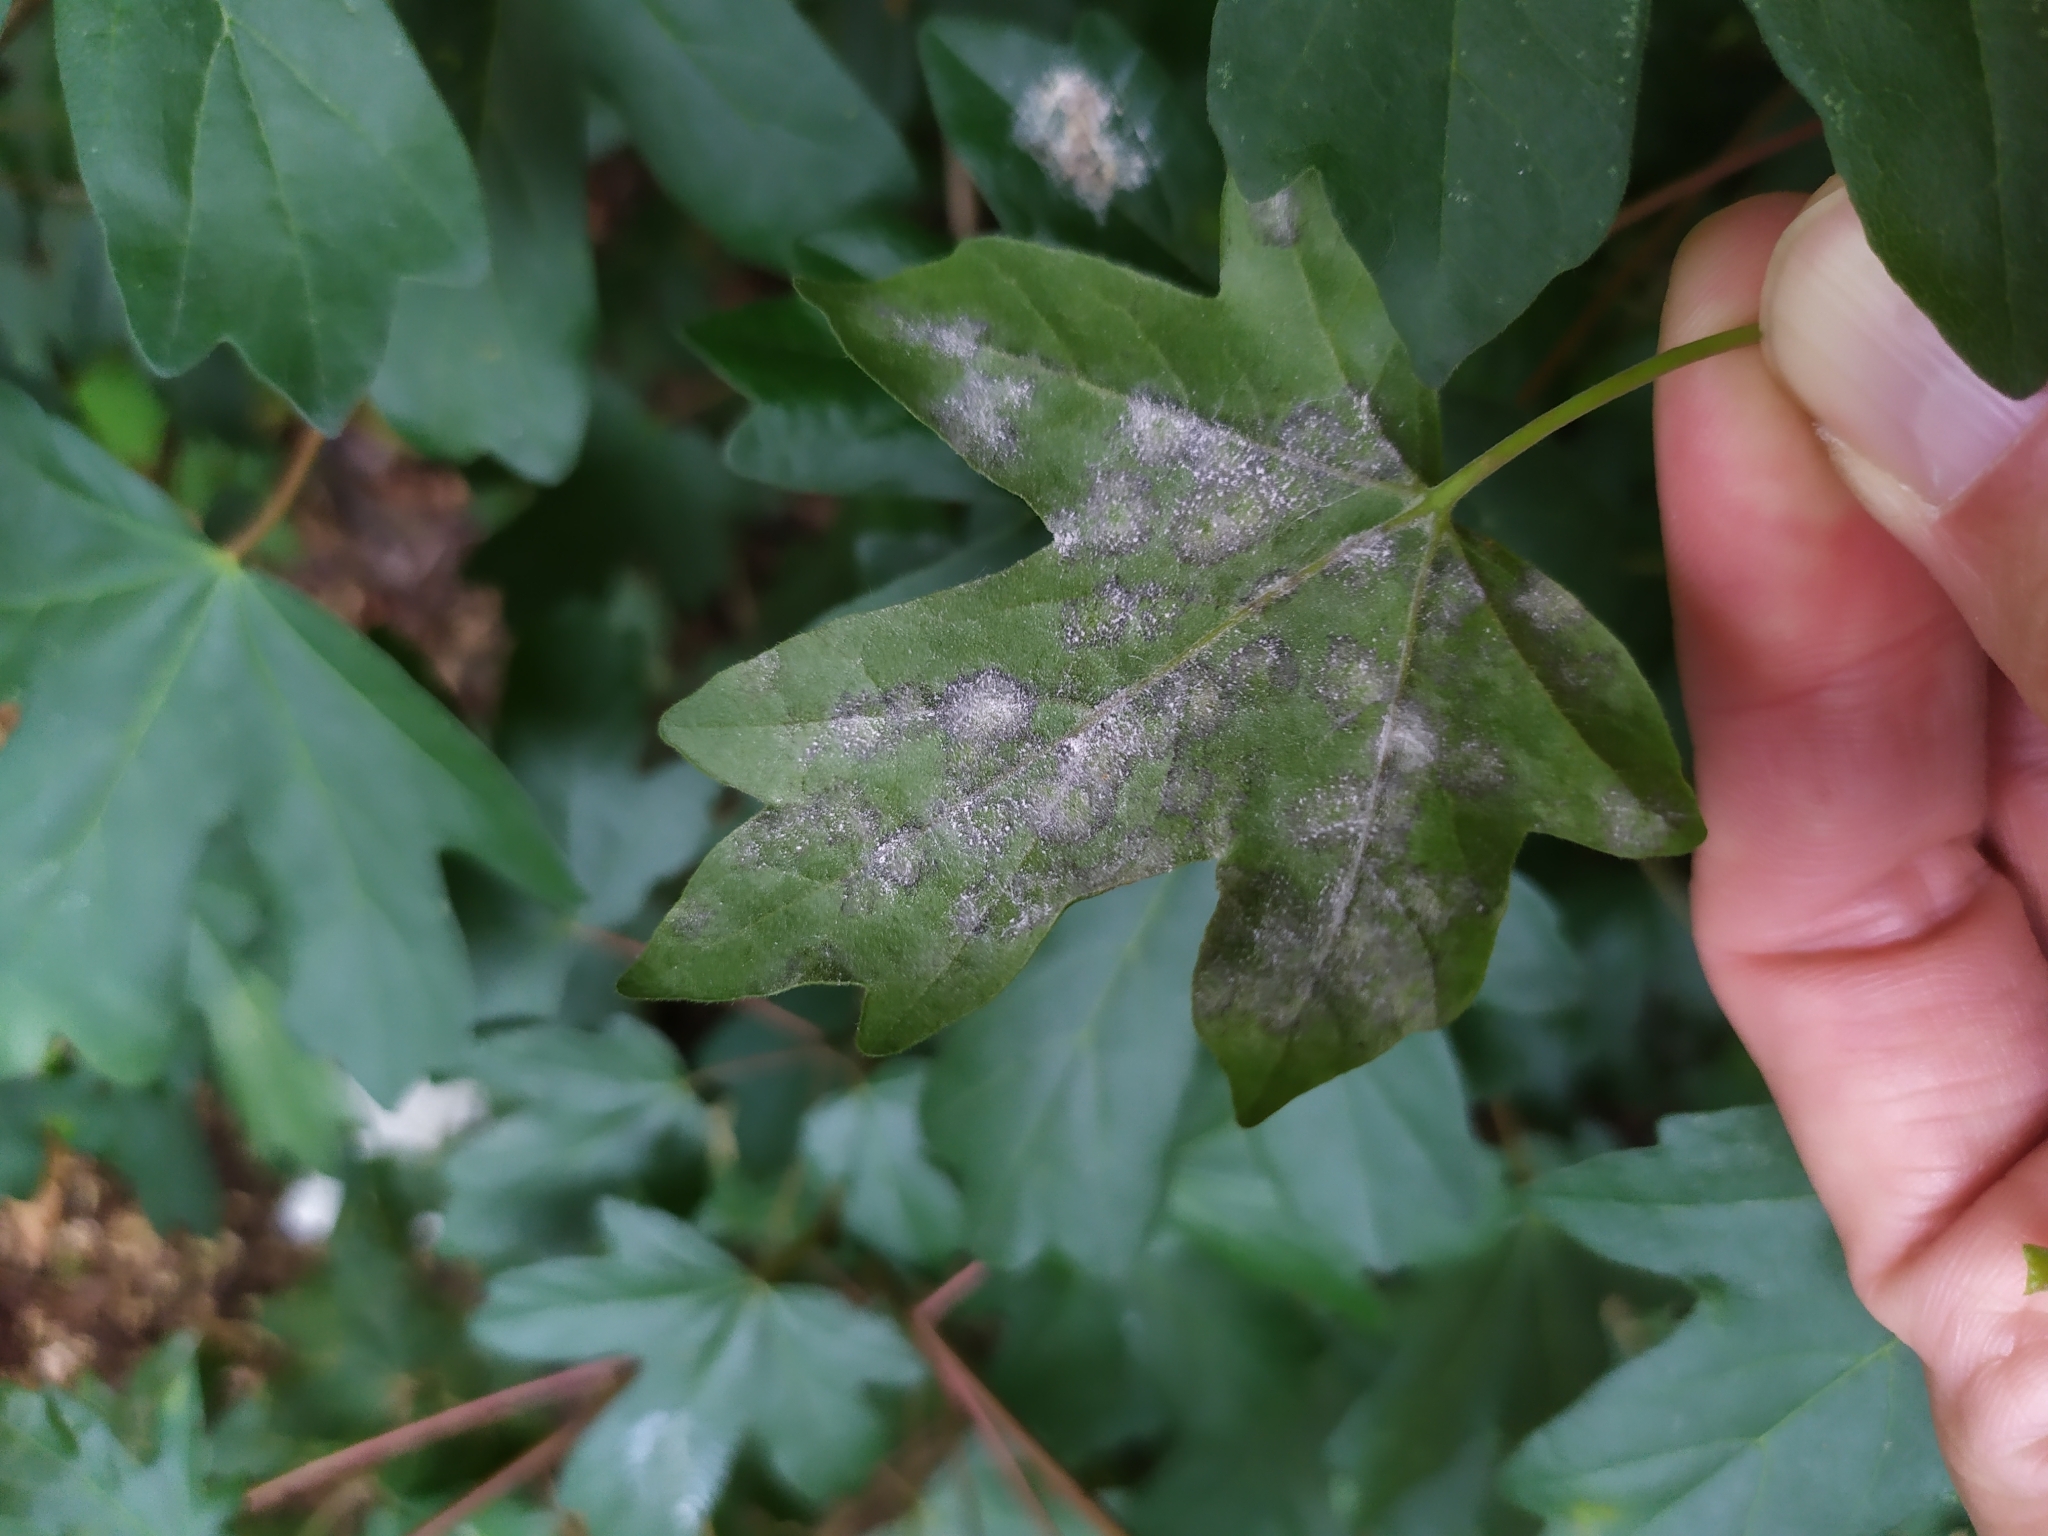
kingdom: Fungi
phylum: Ascomycota
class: Leotiomycetes
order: Helotiales
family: Erysiphaceae
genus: Sawadaea
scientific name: Sawadaea bicornis
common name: Maple mildew
